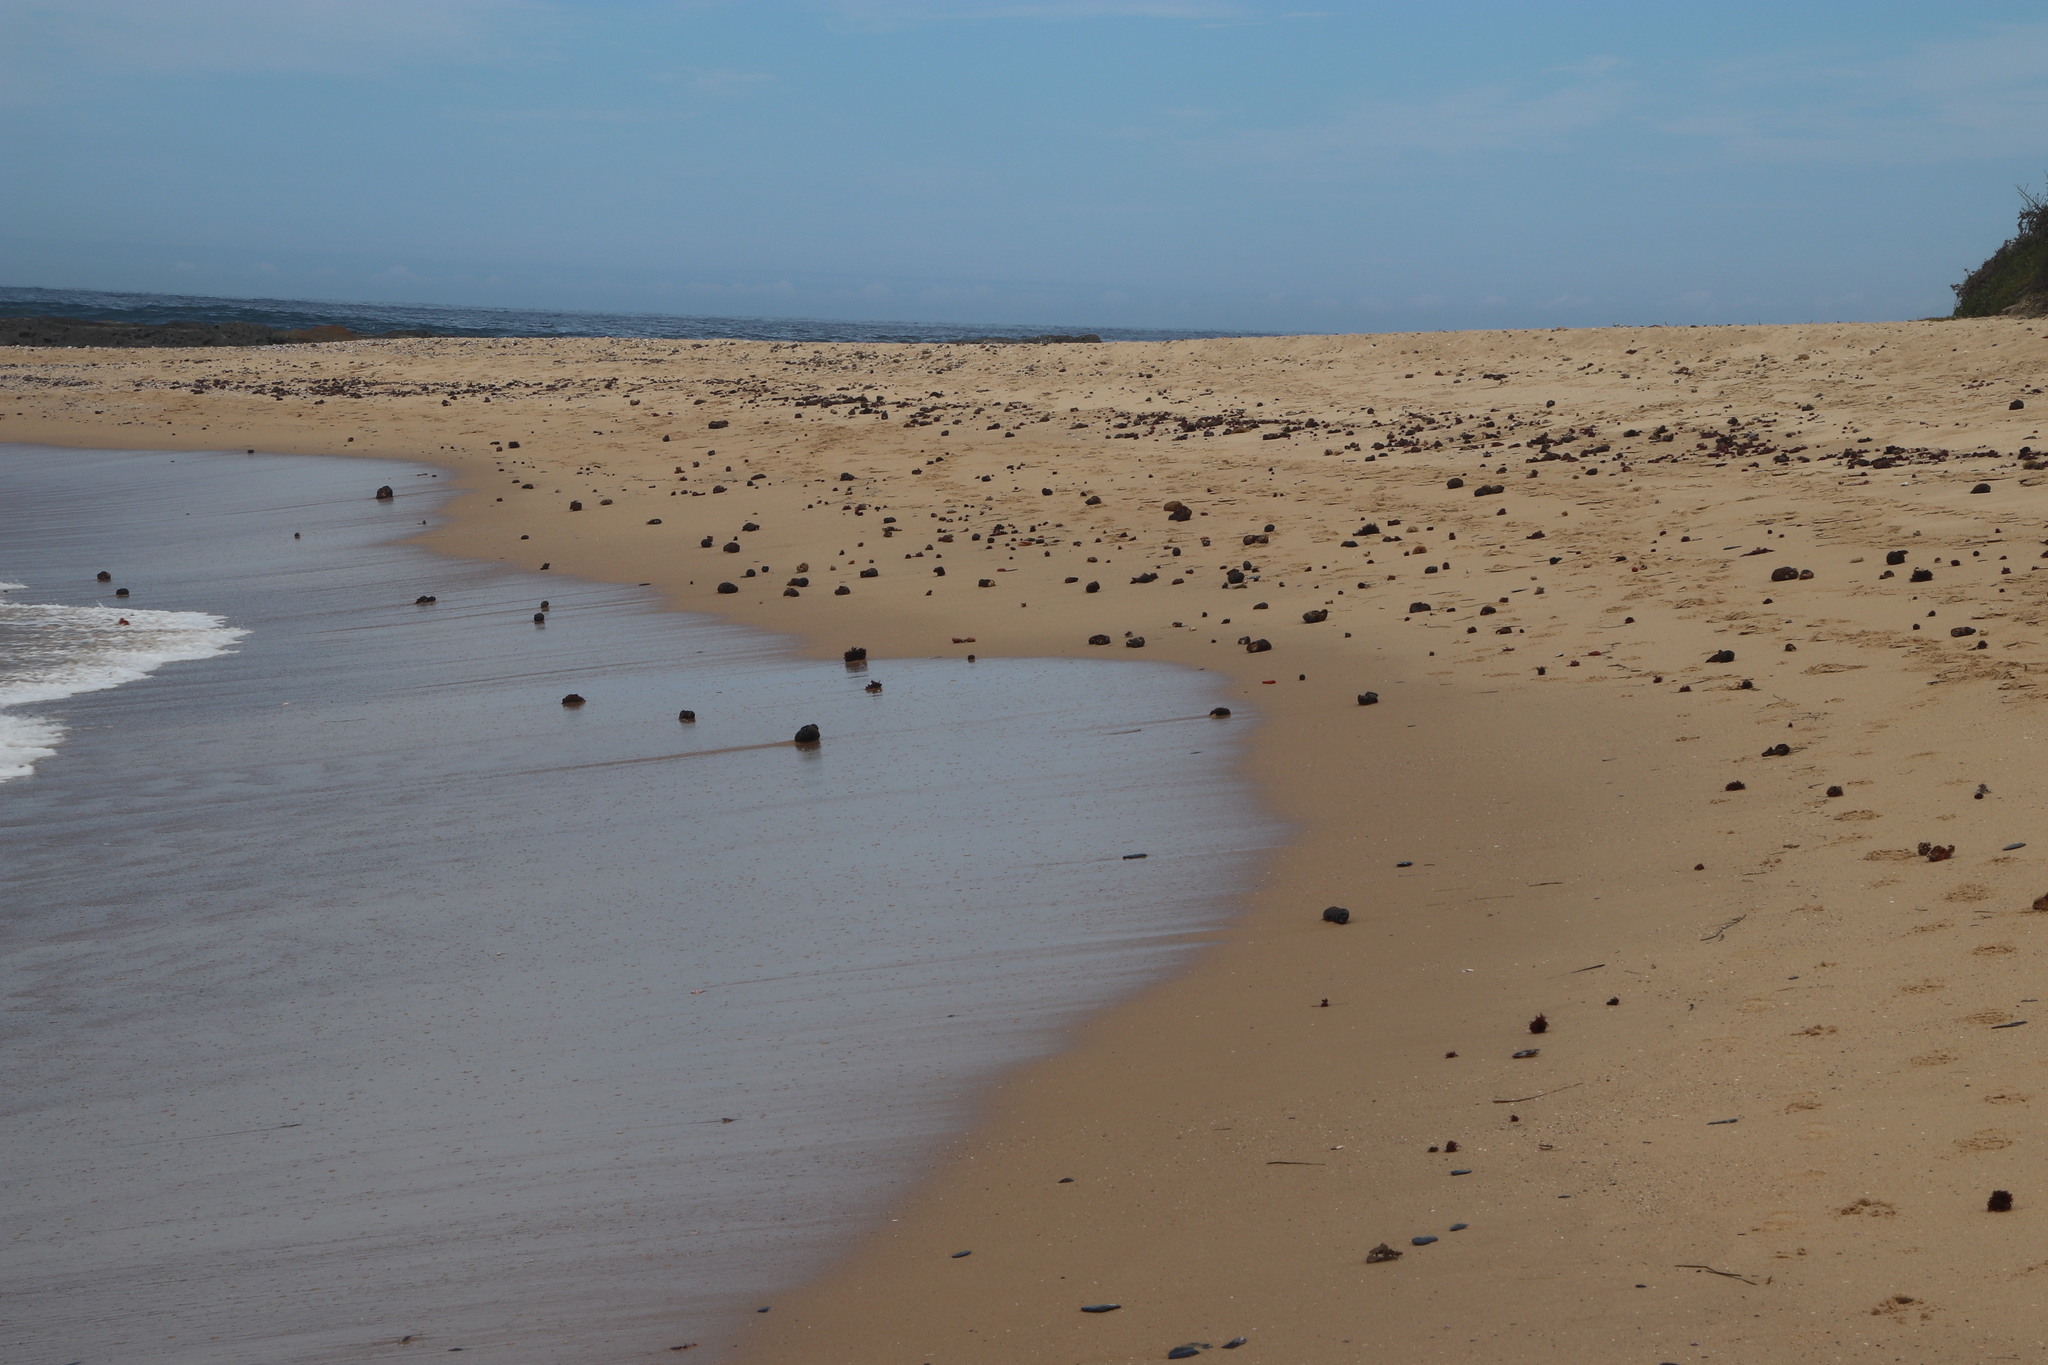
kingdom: Animalia
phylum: Chordata
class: Ascidiacea
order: Stolidobranchia
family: Pyuridae
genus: Pyura
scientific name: Pyura stolonifera
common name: Red bait
